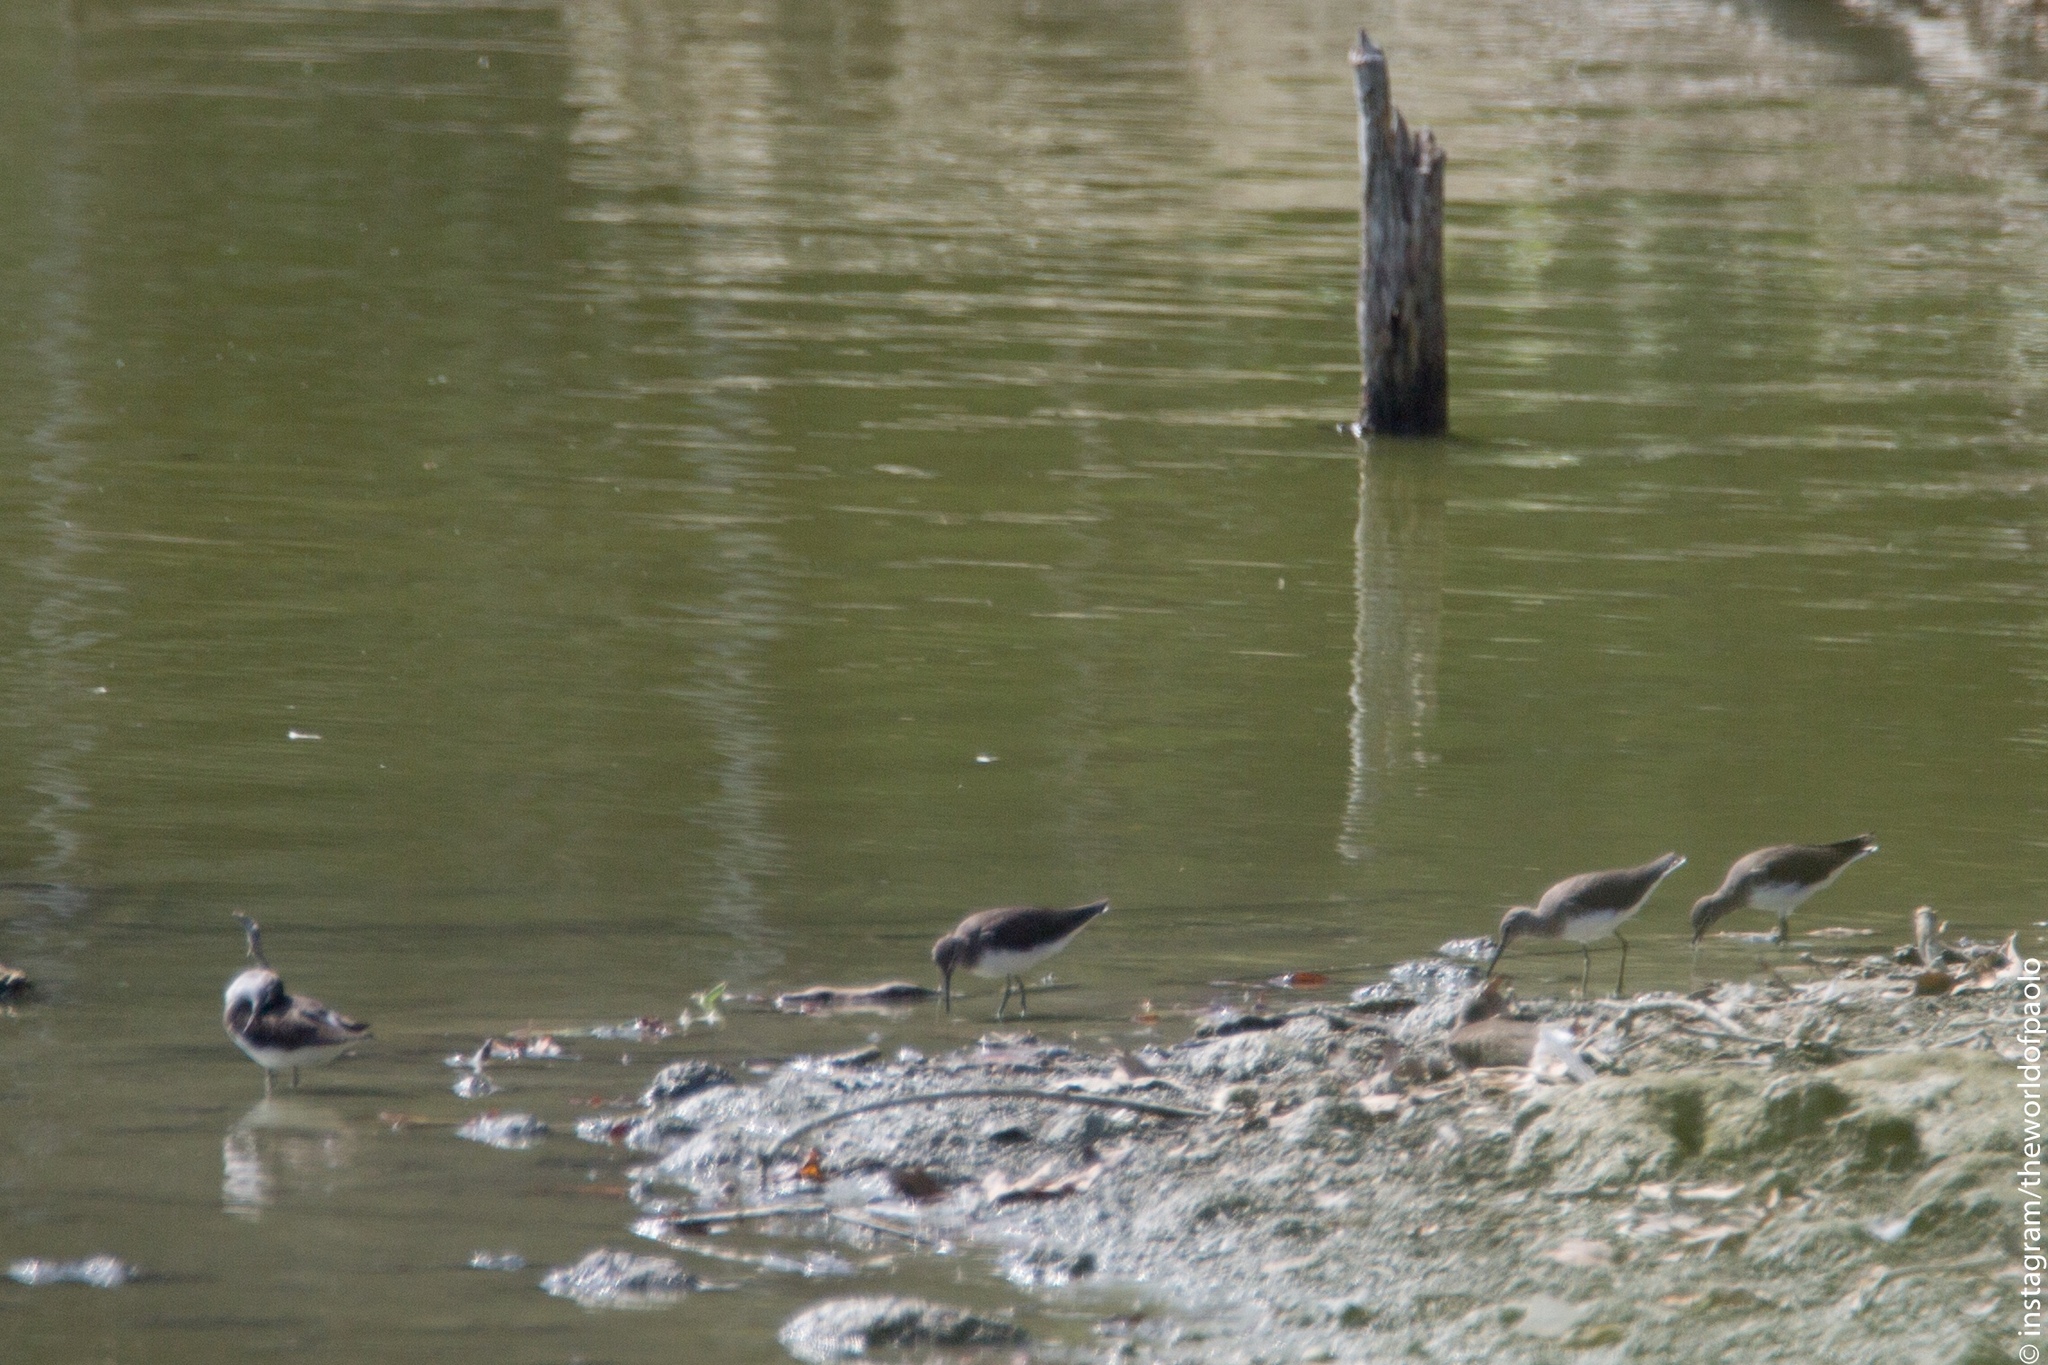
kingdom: Animalia
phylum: Chordata
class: Aves
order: Charadriiformes
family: Scolopacidae
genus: Tringa
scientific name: Tringa ochropus
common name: Green sandpiper
